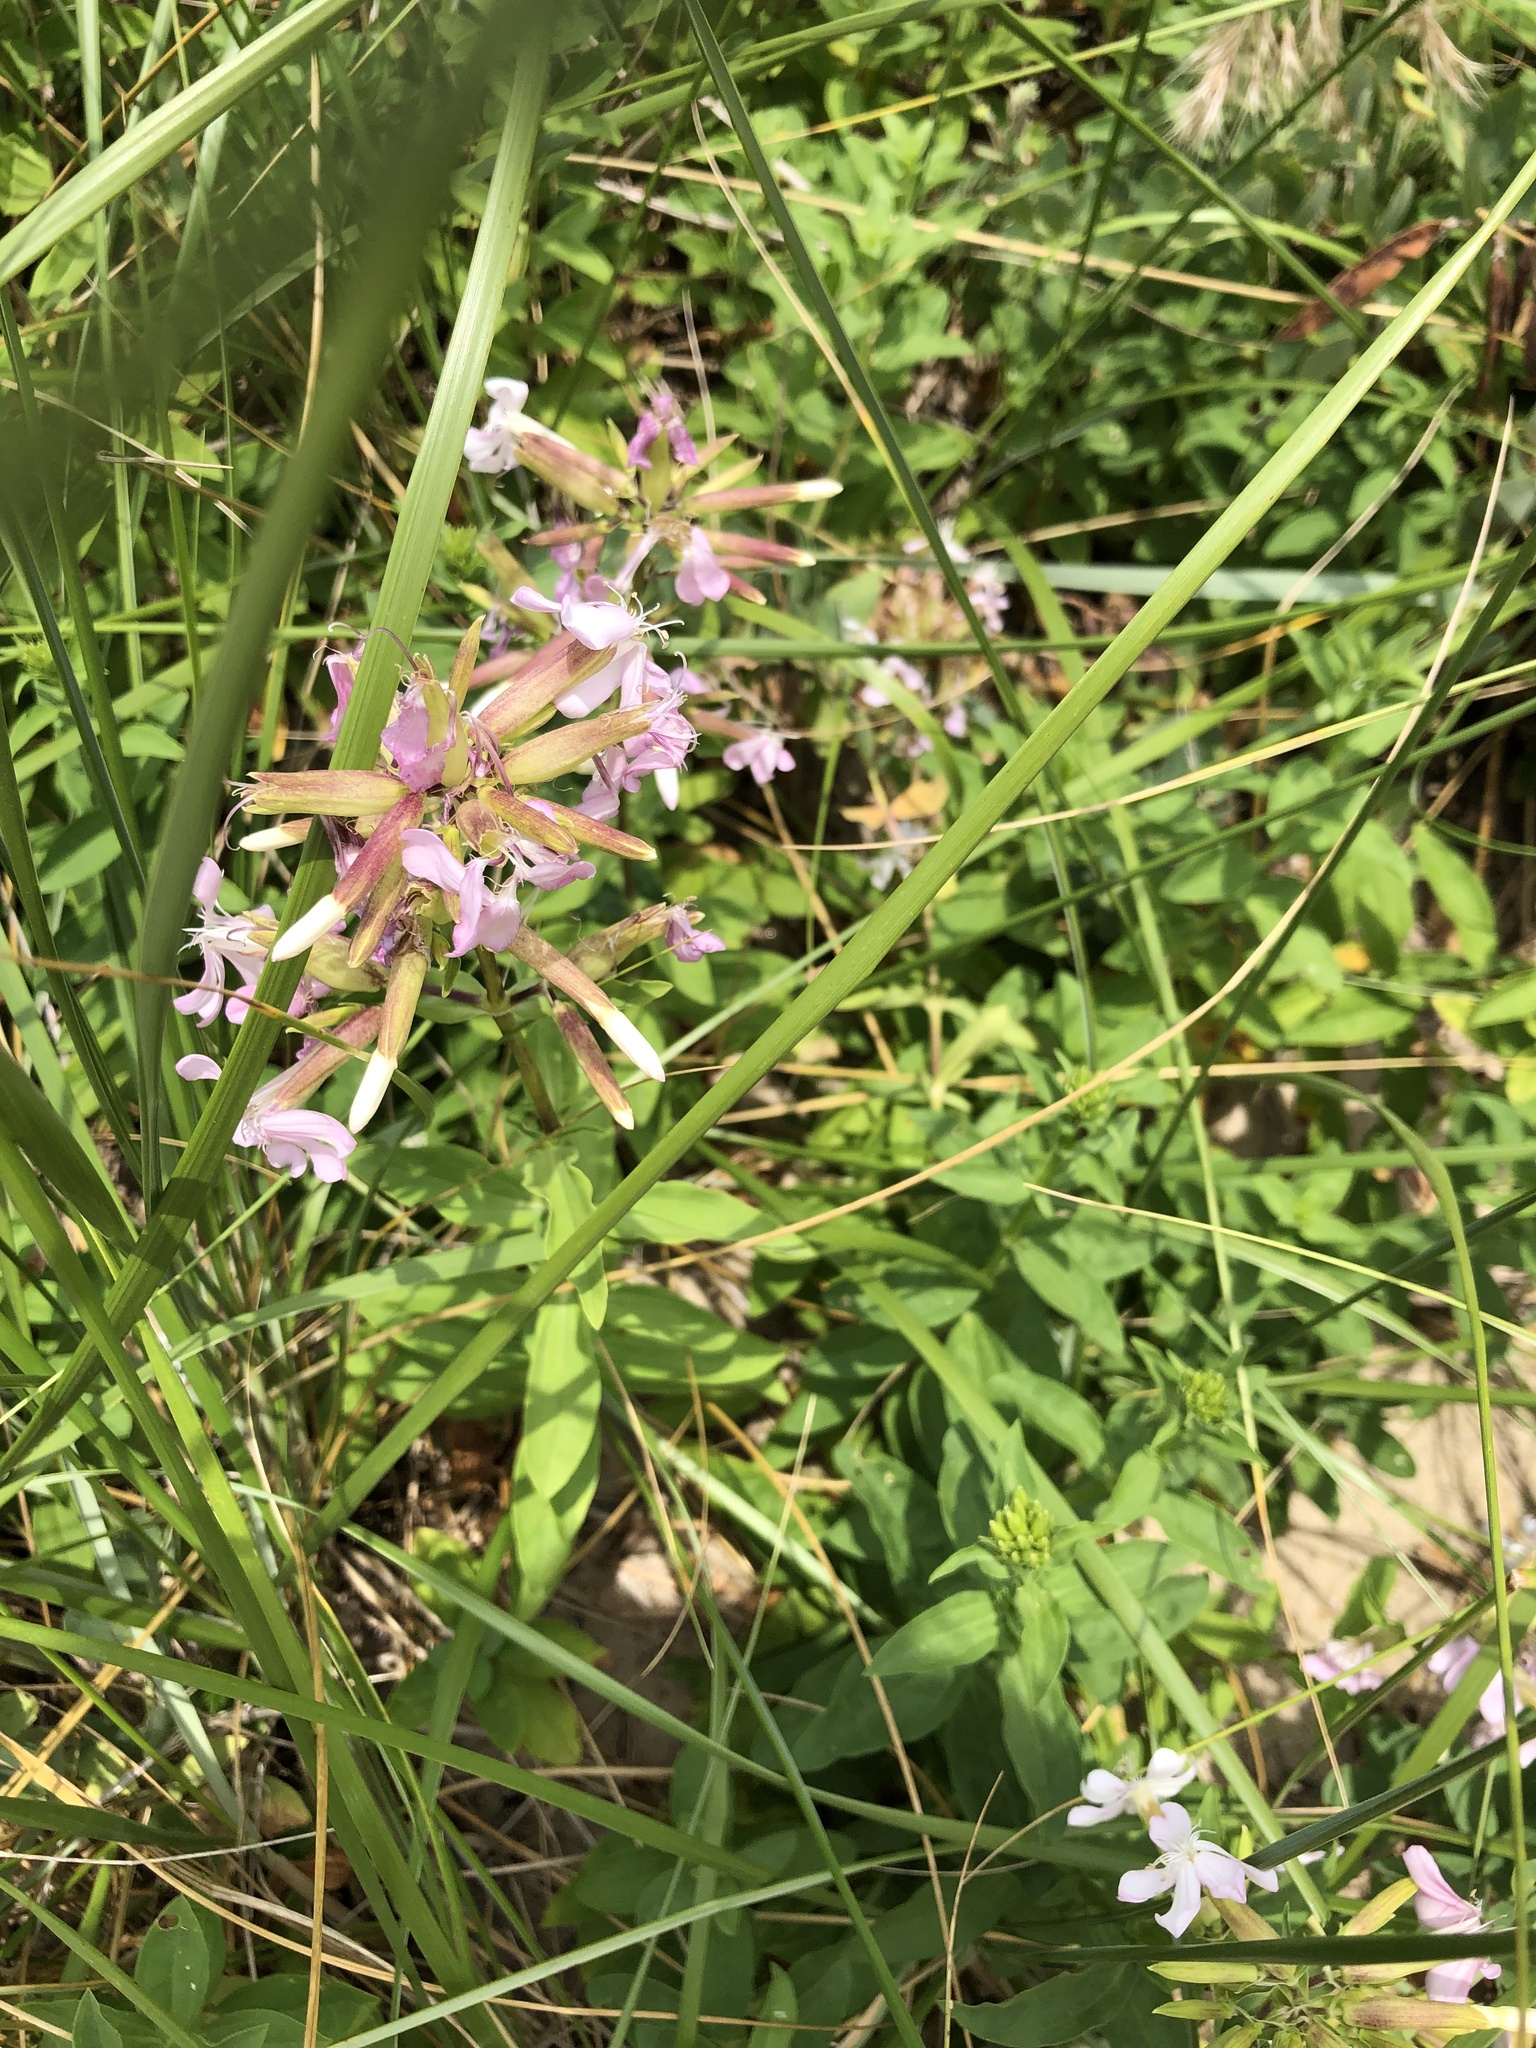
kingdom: Plantae
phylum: Tracheophyta
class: Magnoliopsida
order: Caryophyllales
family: Caryophyllaceae
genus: Saponaria
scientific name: Saponaria officinalis
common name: Soapwort
